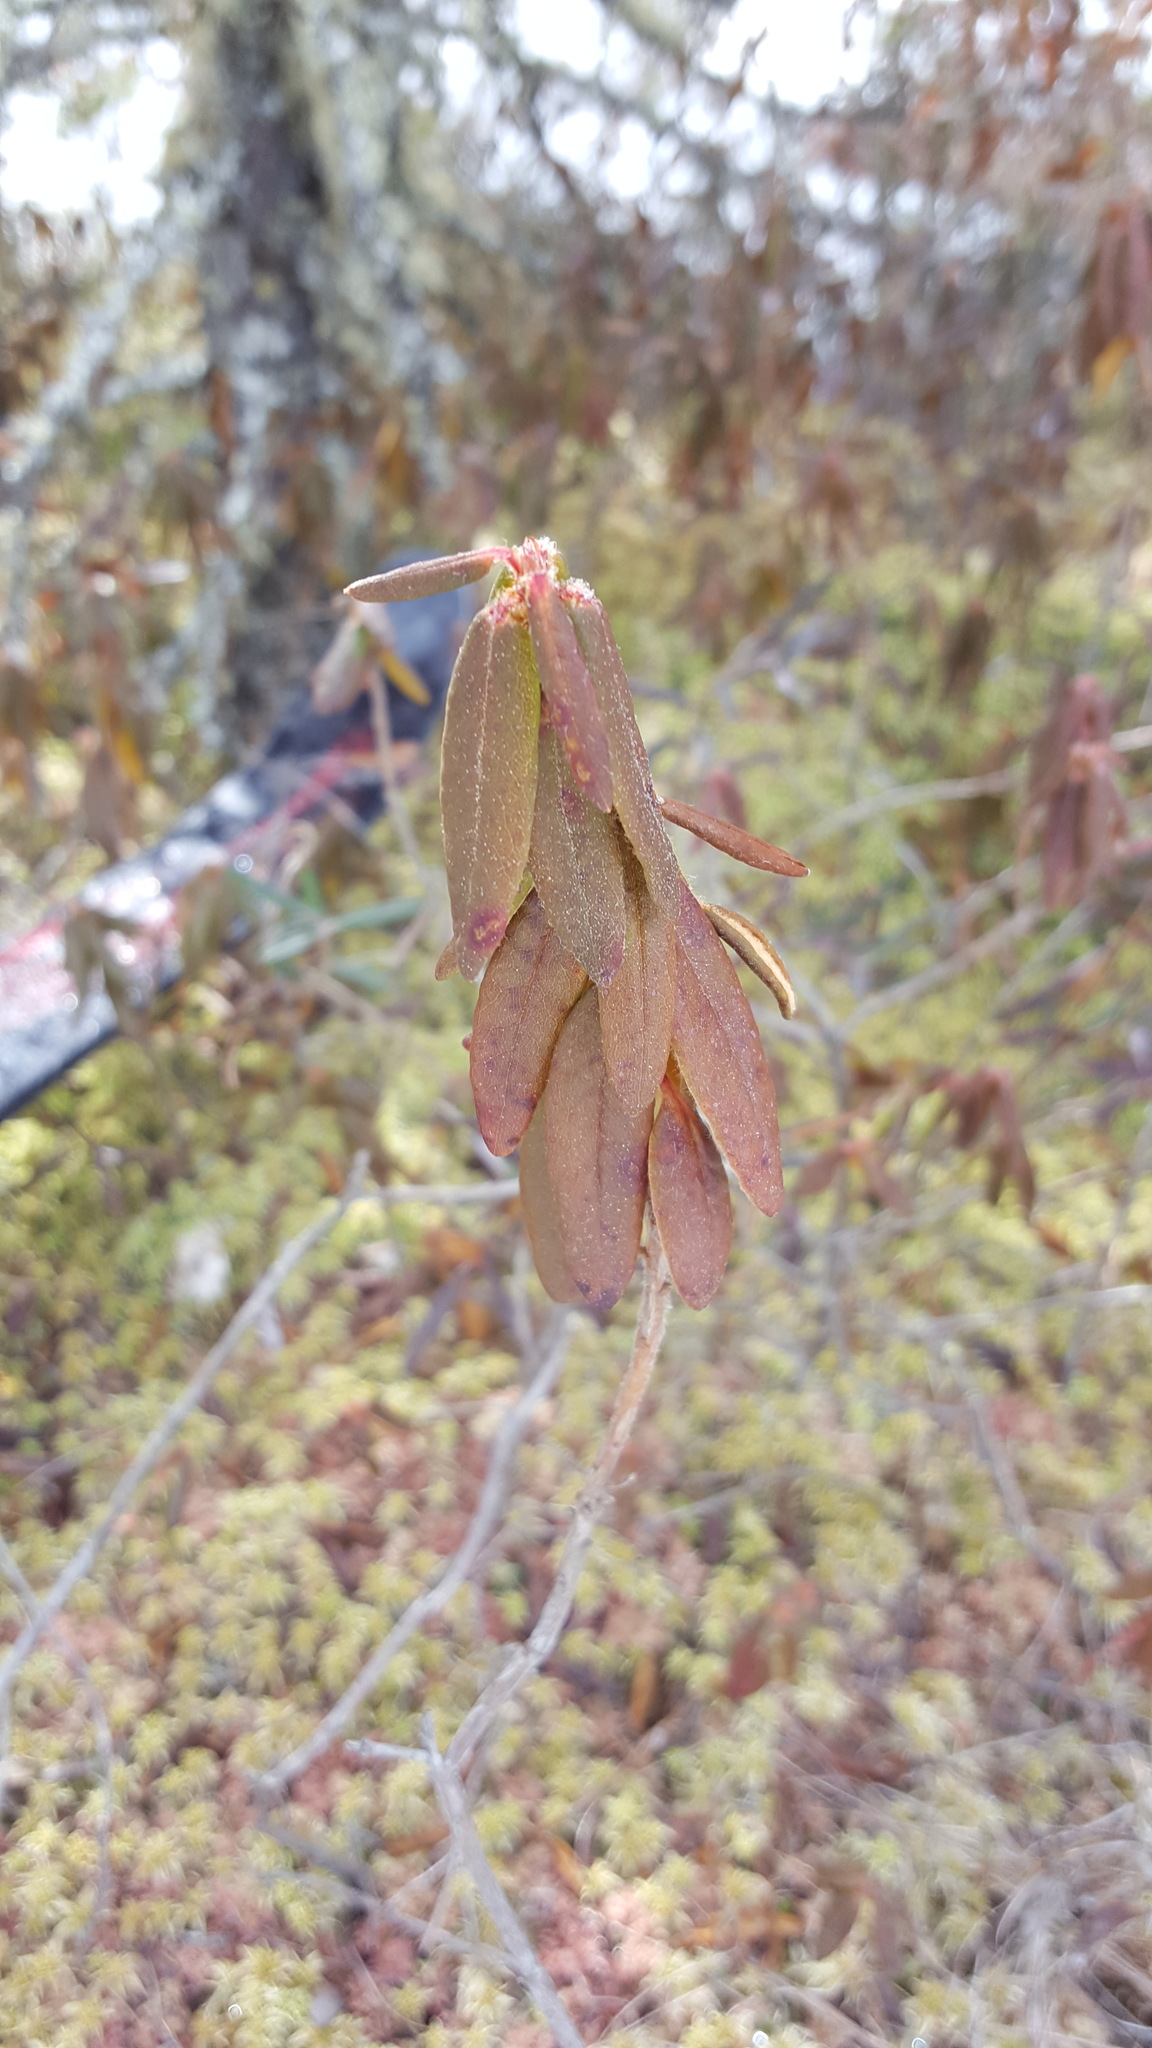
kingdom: Plantae
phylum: Tracheophyta
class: Magnoliopsida
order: Ericales
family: Ericaceae
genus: Rhododendron
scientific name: Rhododendron groenlandicum
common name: Bog labrador tea
